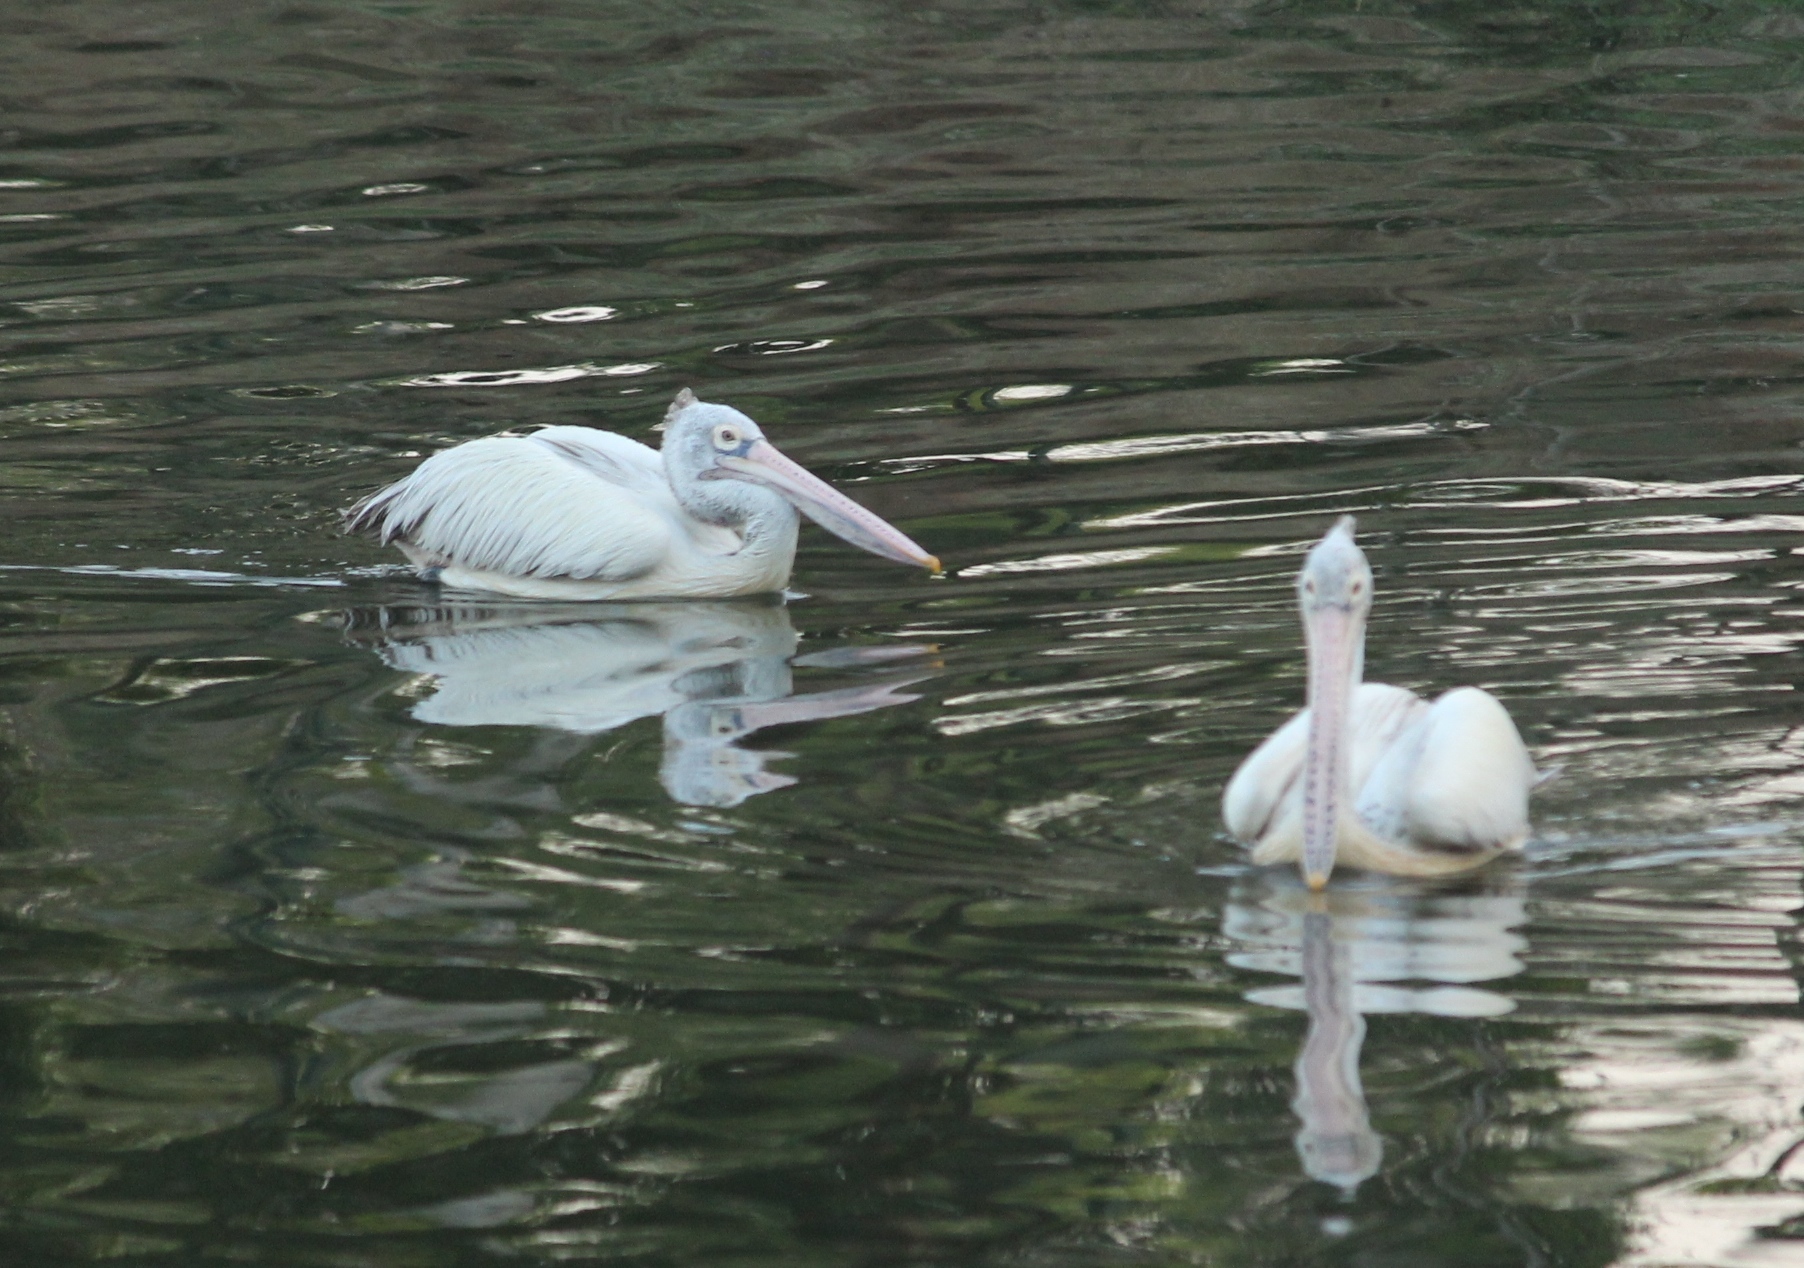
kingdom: Animalia
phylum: Chordata
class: Aves
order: Pelecaniformes
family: Pelecanidae
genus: Pelecanus
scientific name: Pelecanus philippensis
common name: Spot-billed pelican
